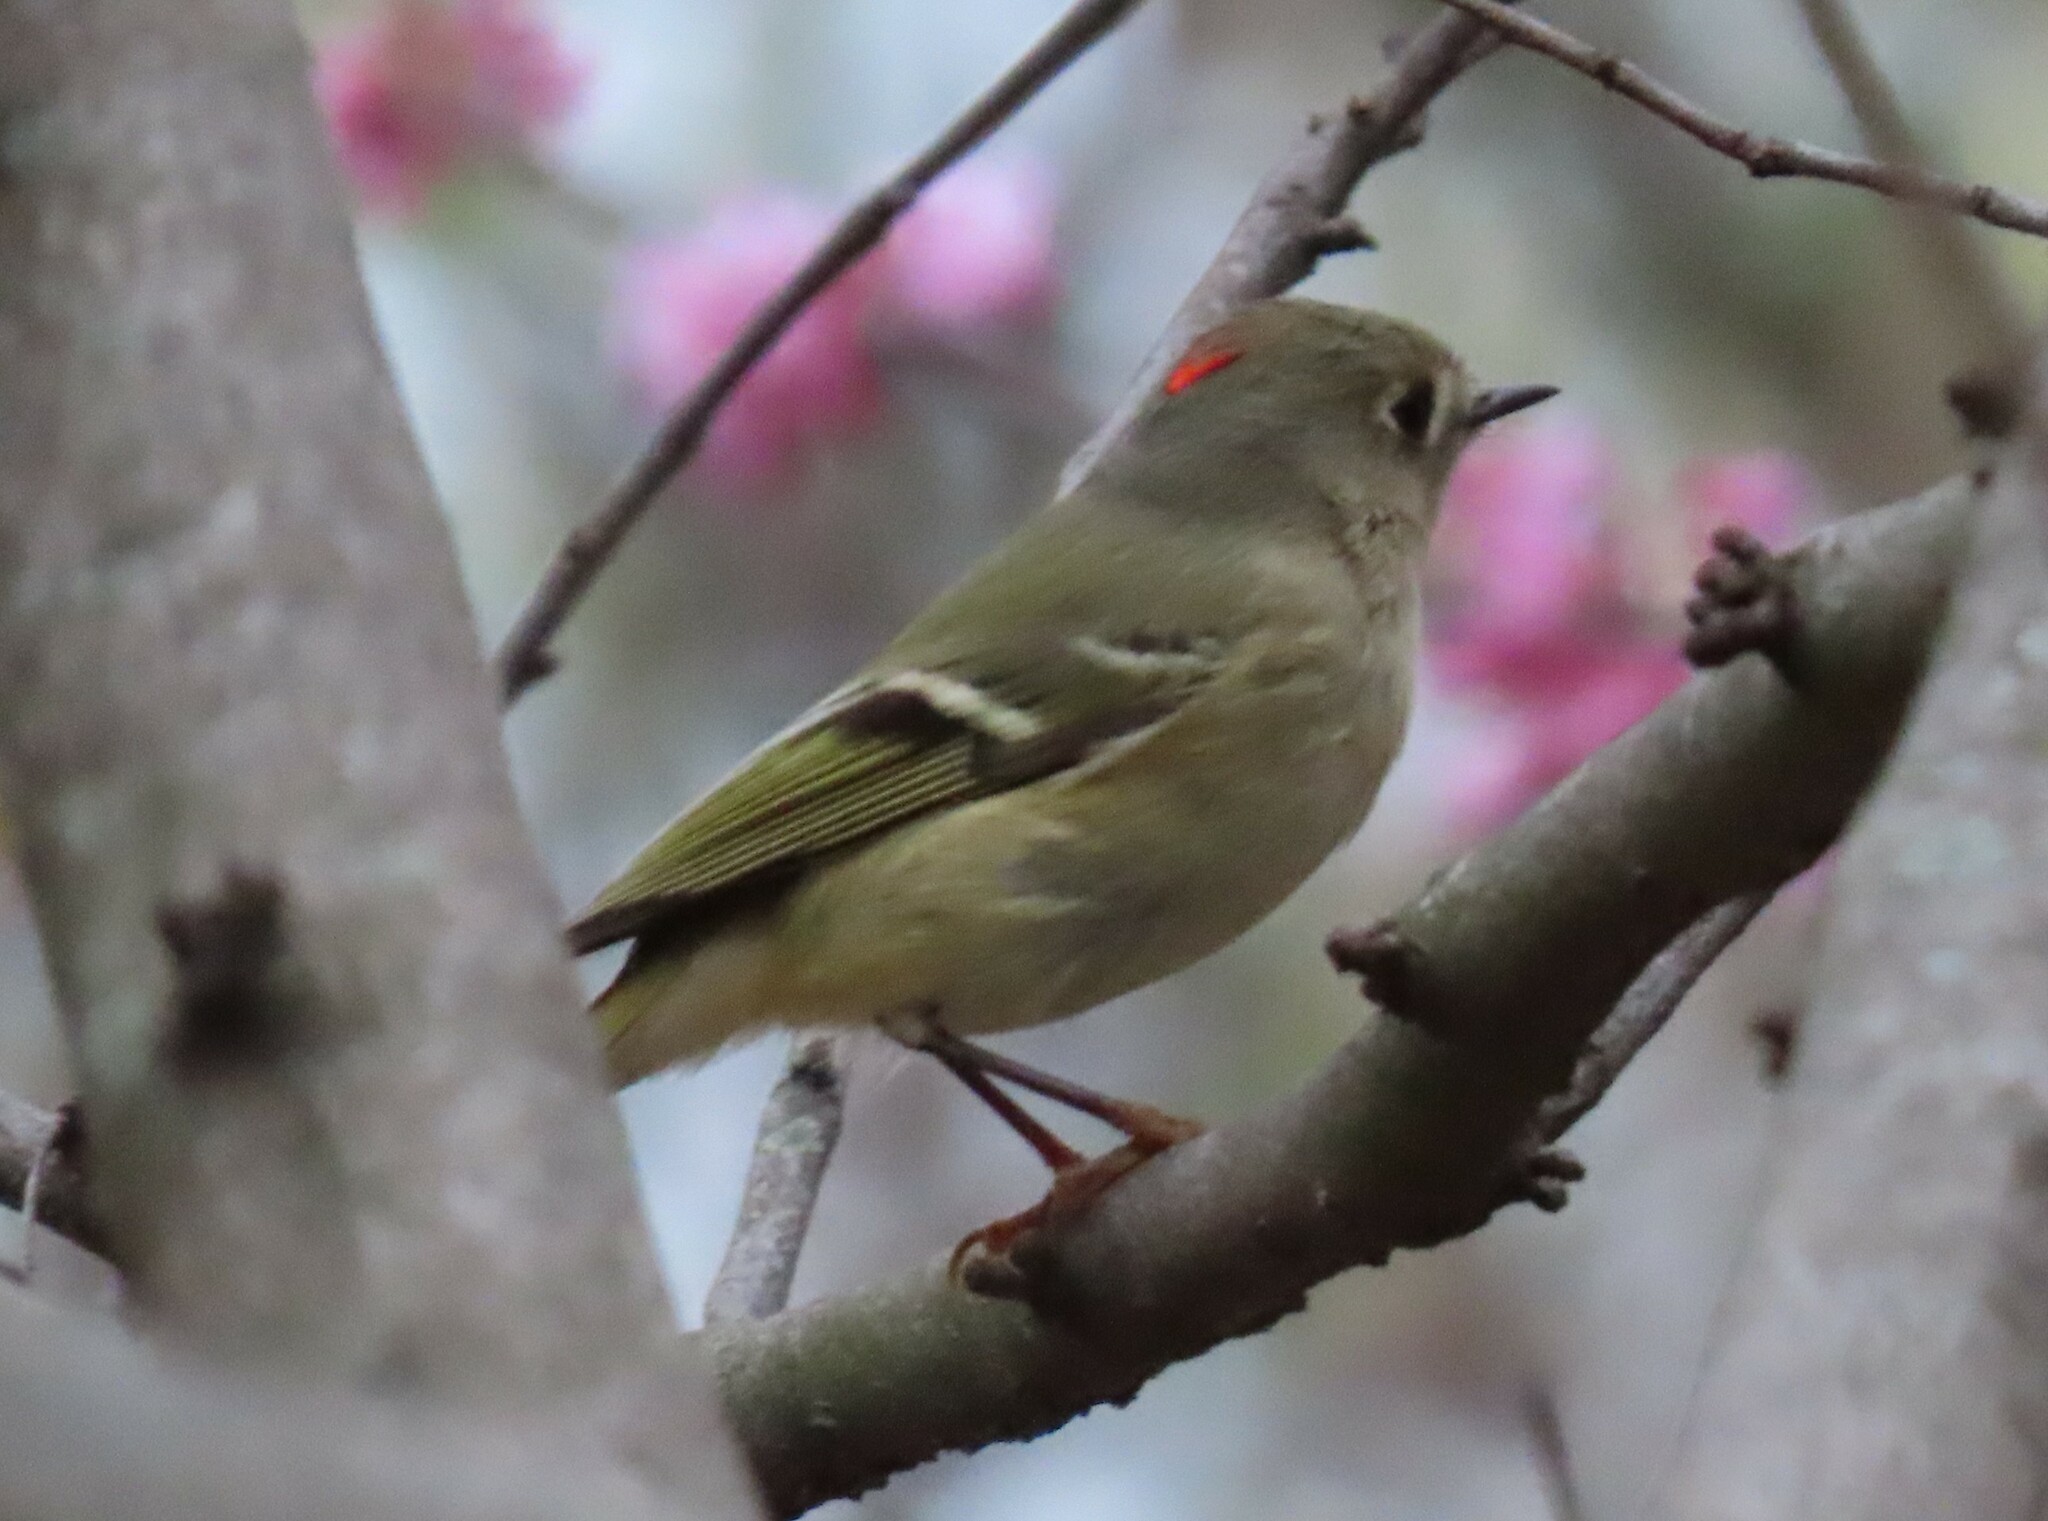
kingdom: Animalia
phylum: Chordata
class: Aves
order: Passeriformes
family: Regulidae
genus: Regulus
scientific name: Regulus calendula
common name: Ruby-crowned kinglet
